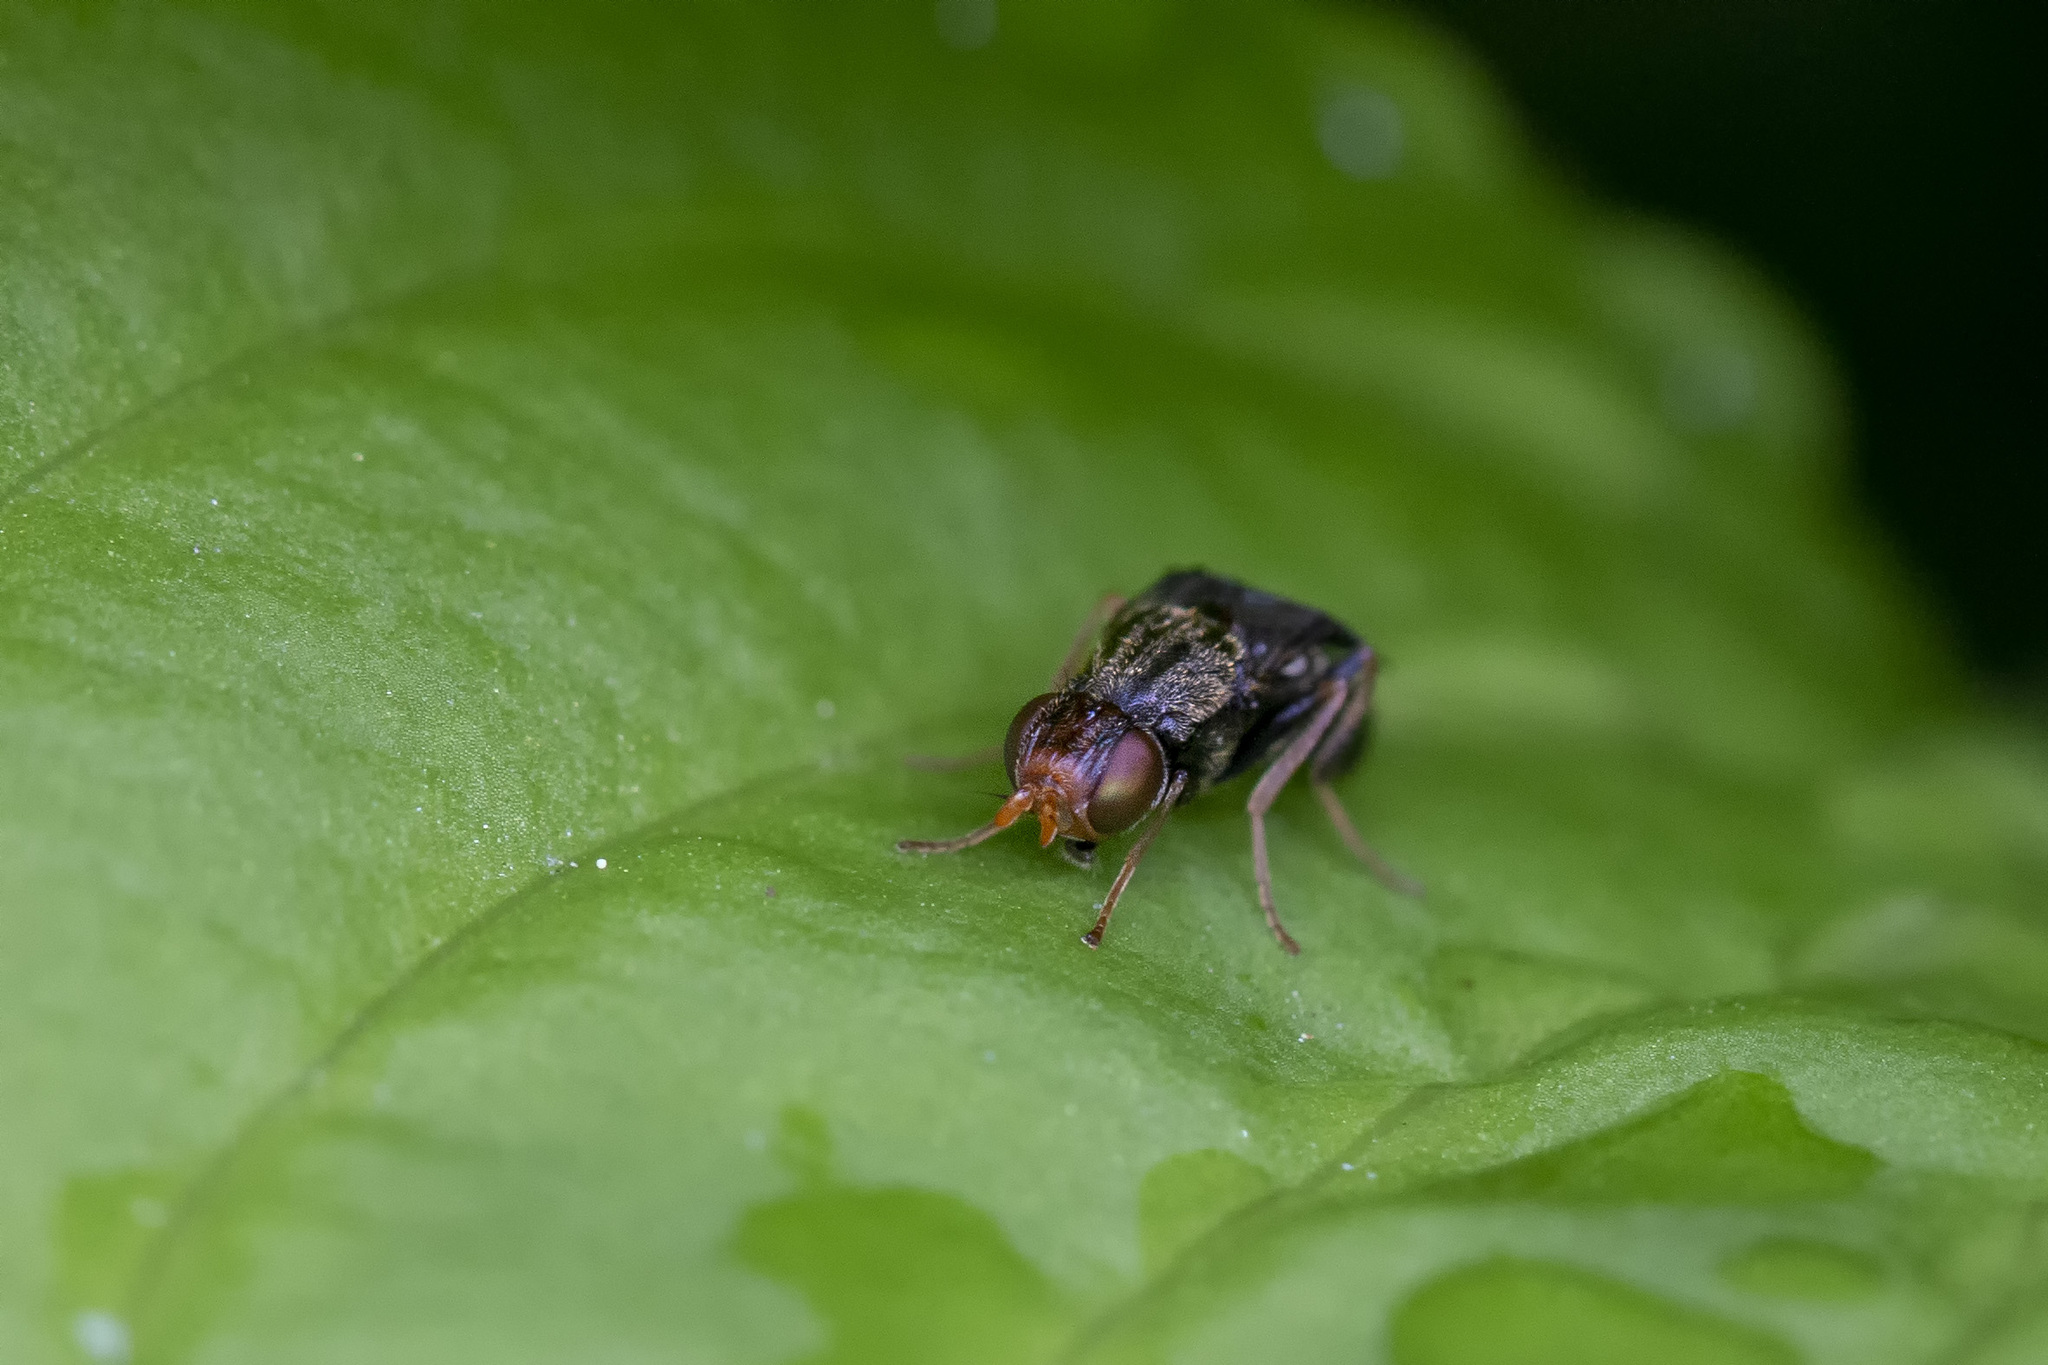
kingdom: Animalia
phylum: Arthropoda
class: Insecta
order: Diptera
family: Psilidae
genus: Chyliza
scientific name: Chyliza leguminicola
